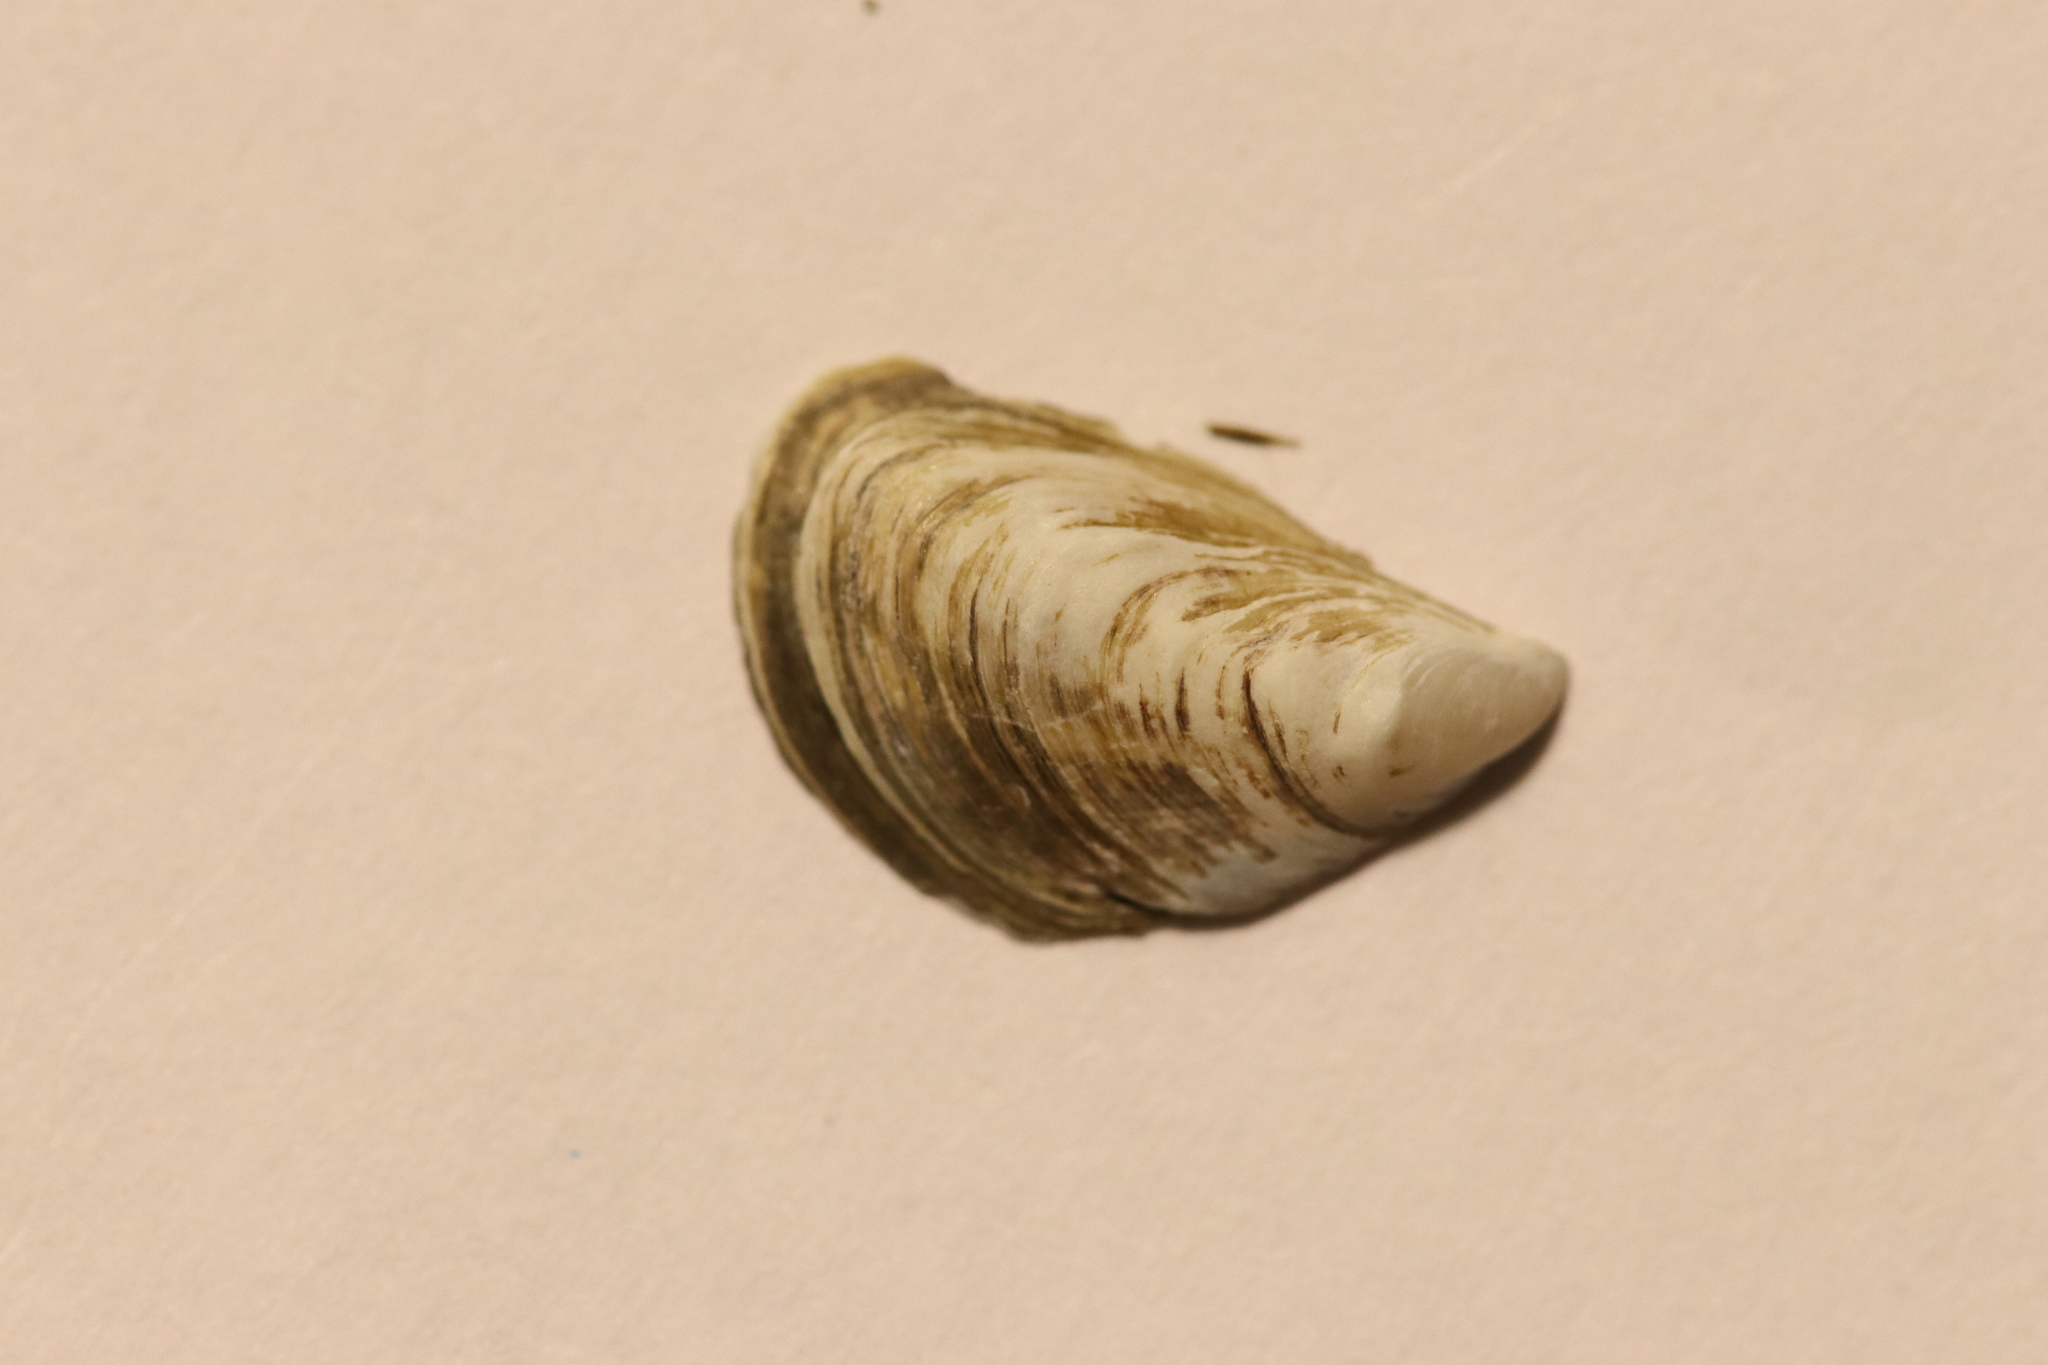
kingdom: Animalia
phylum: Mollusca
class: Bivalvia
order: Myida
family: Dreissenidae
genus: Dreissena
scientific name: Dreissena bugensis
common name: Quagga mussel
